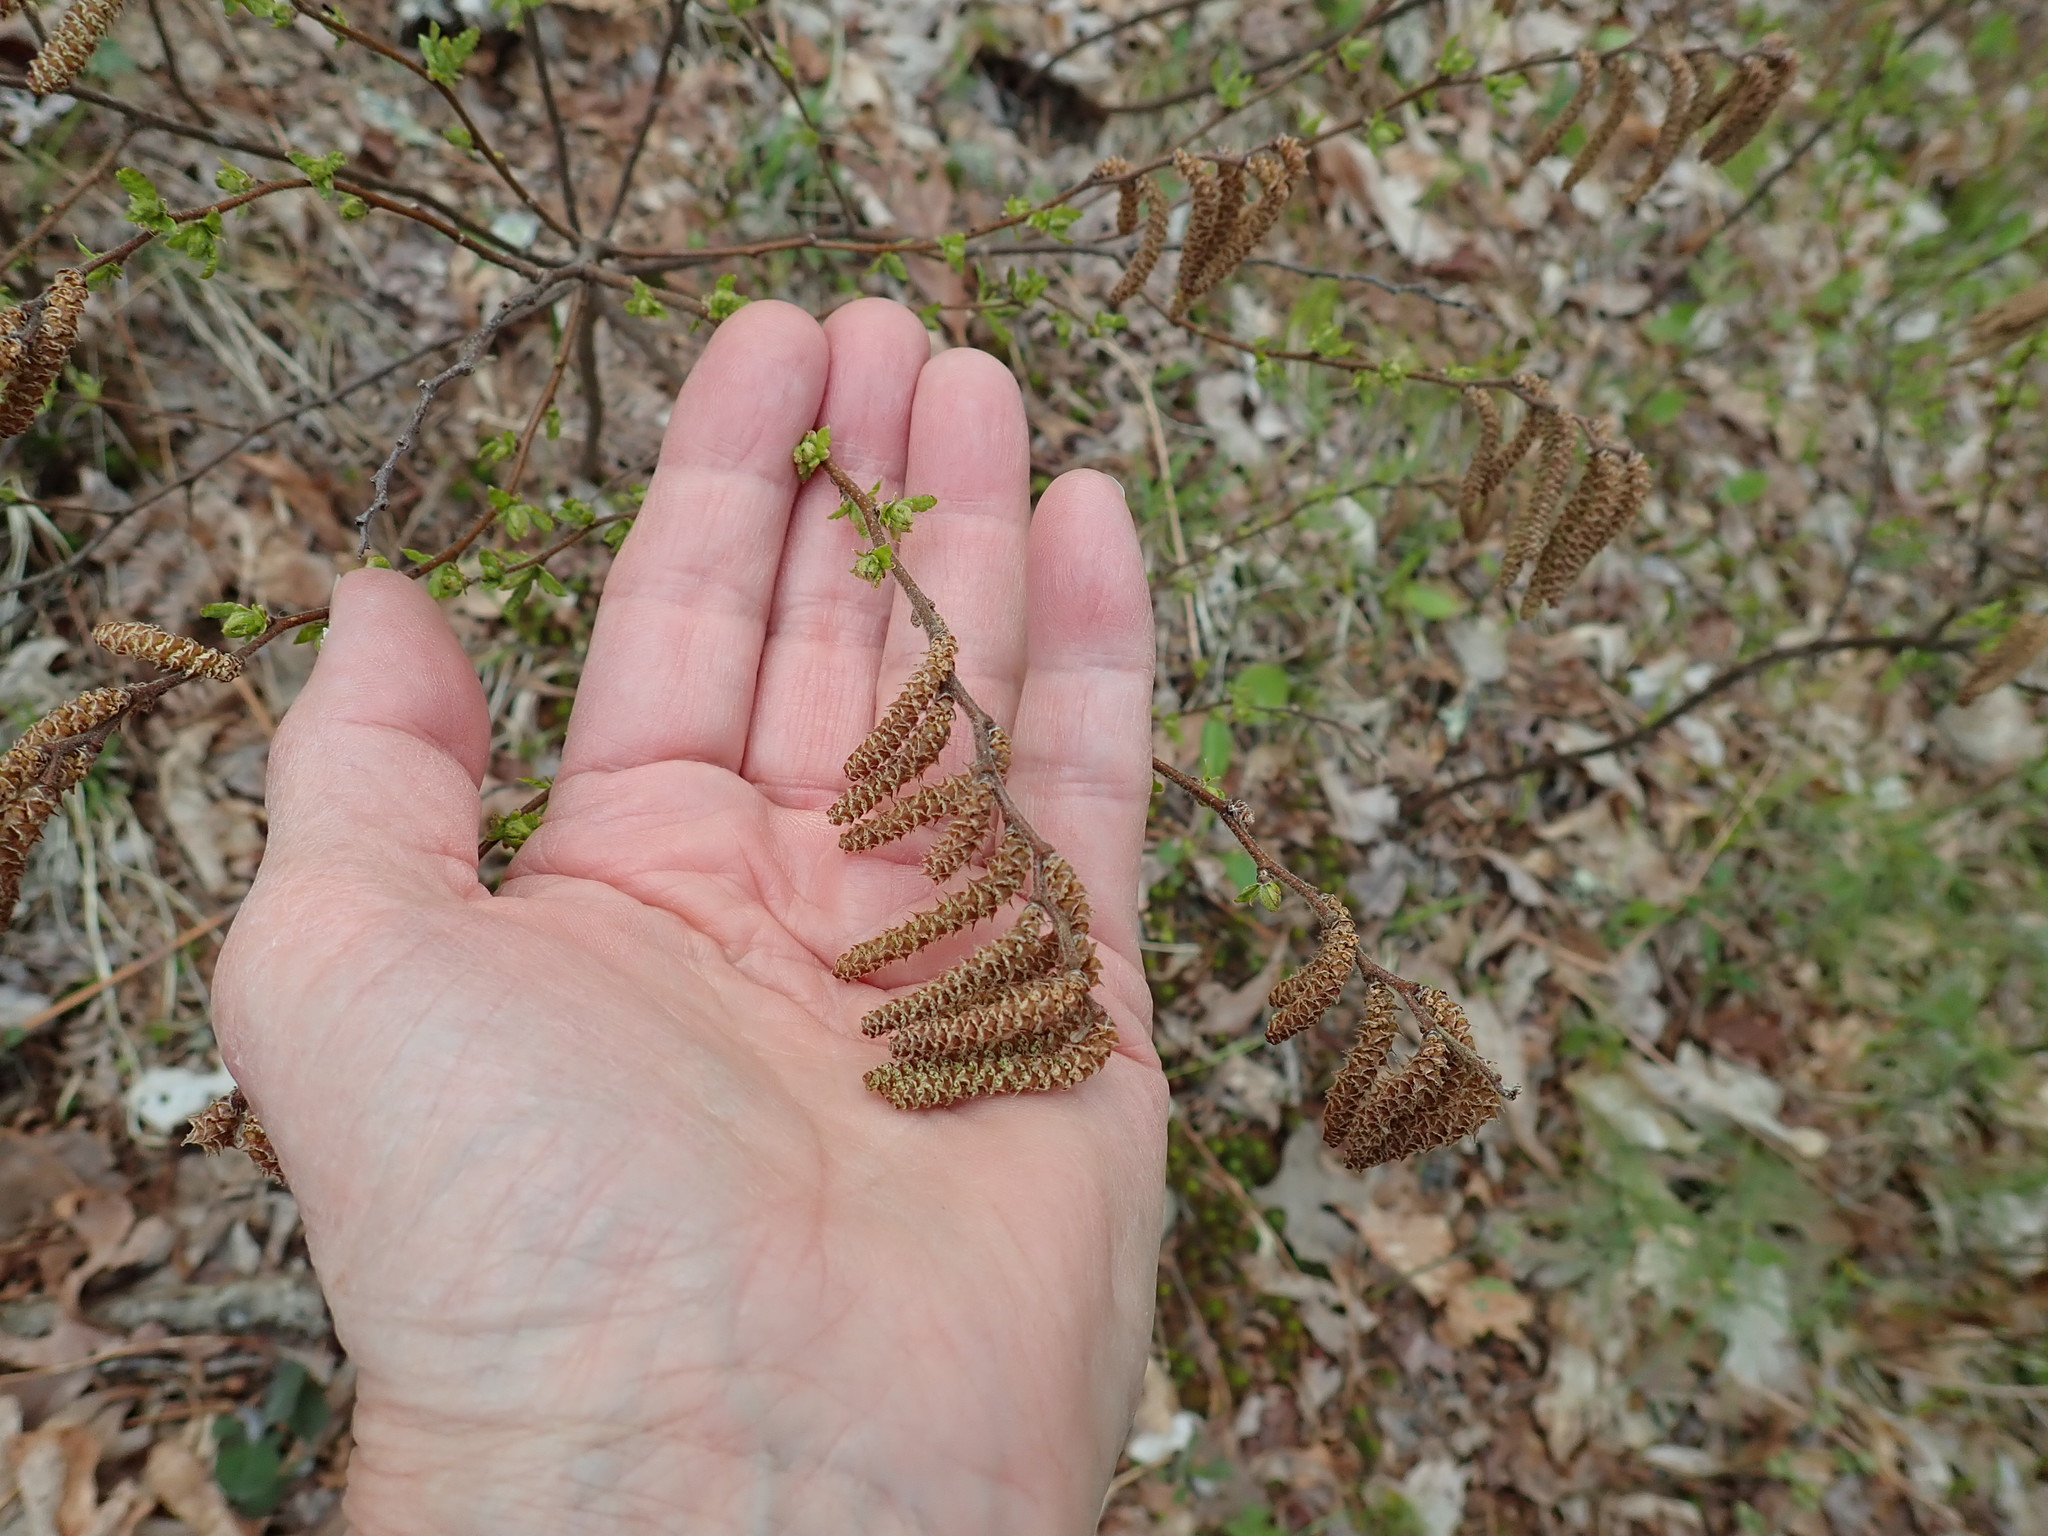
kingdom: Plantae
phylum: Tracheophyta
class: Magnoliopsida
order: Fagales
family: Myricaceae
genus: Comptonia
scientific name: Comptonia peregrina
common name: Sweet-fern
